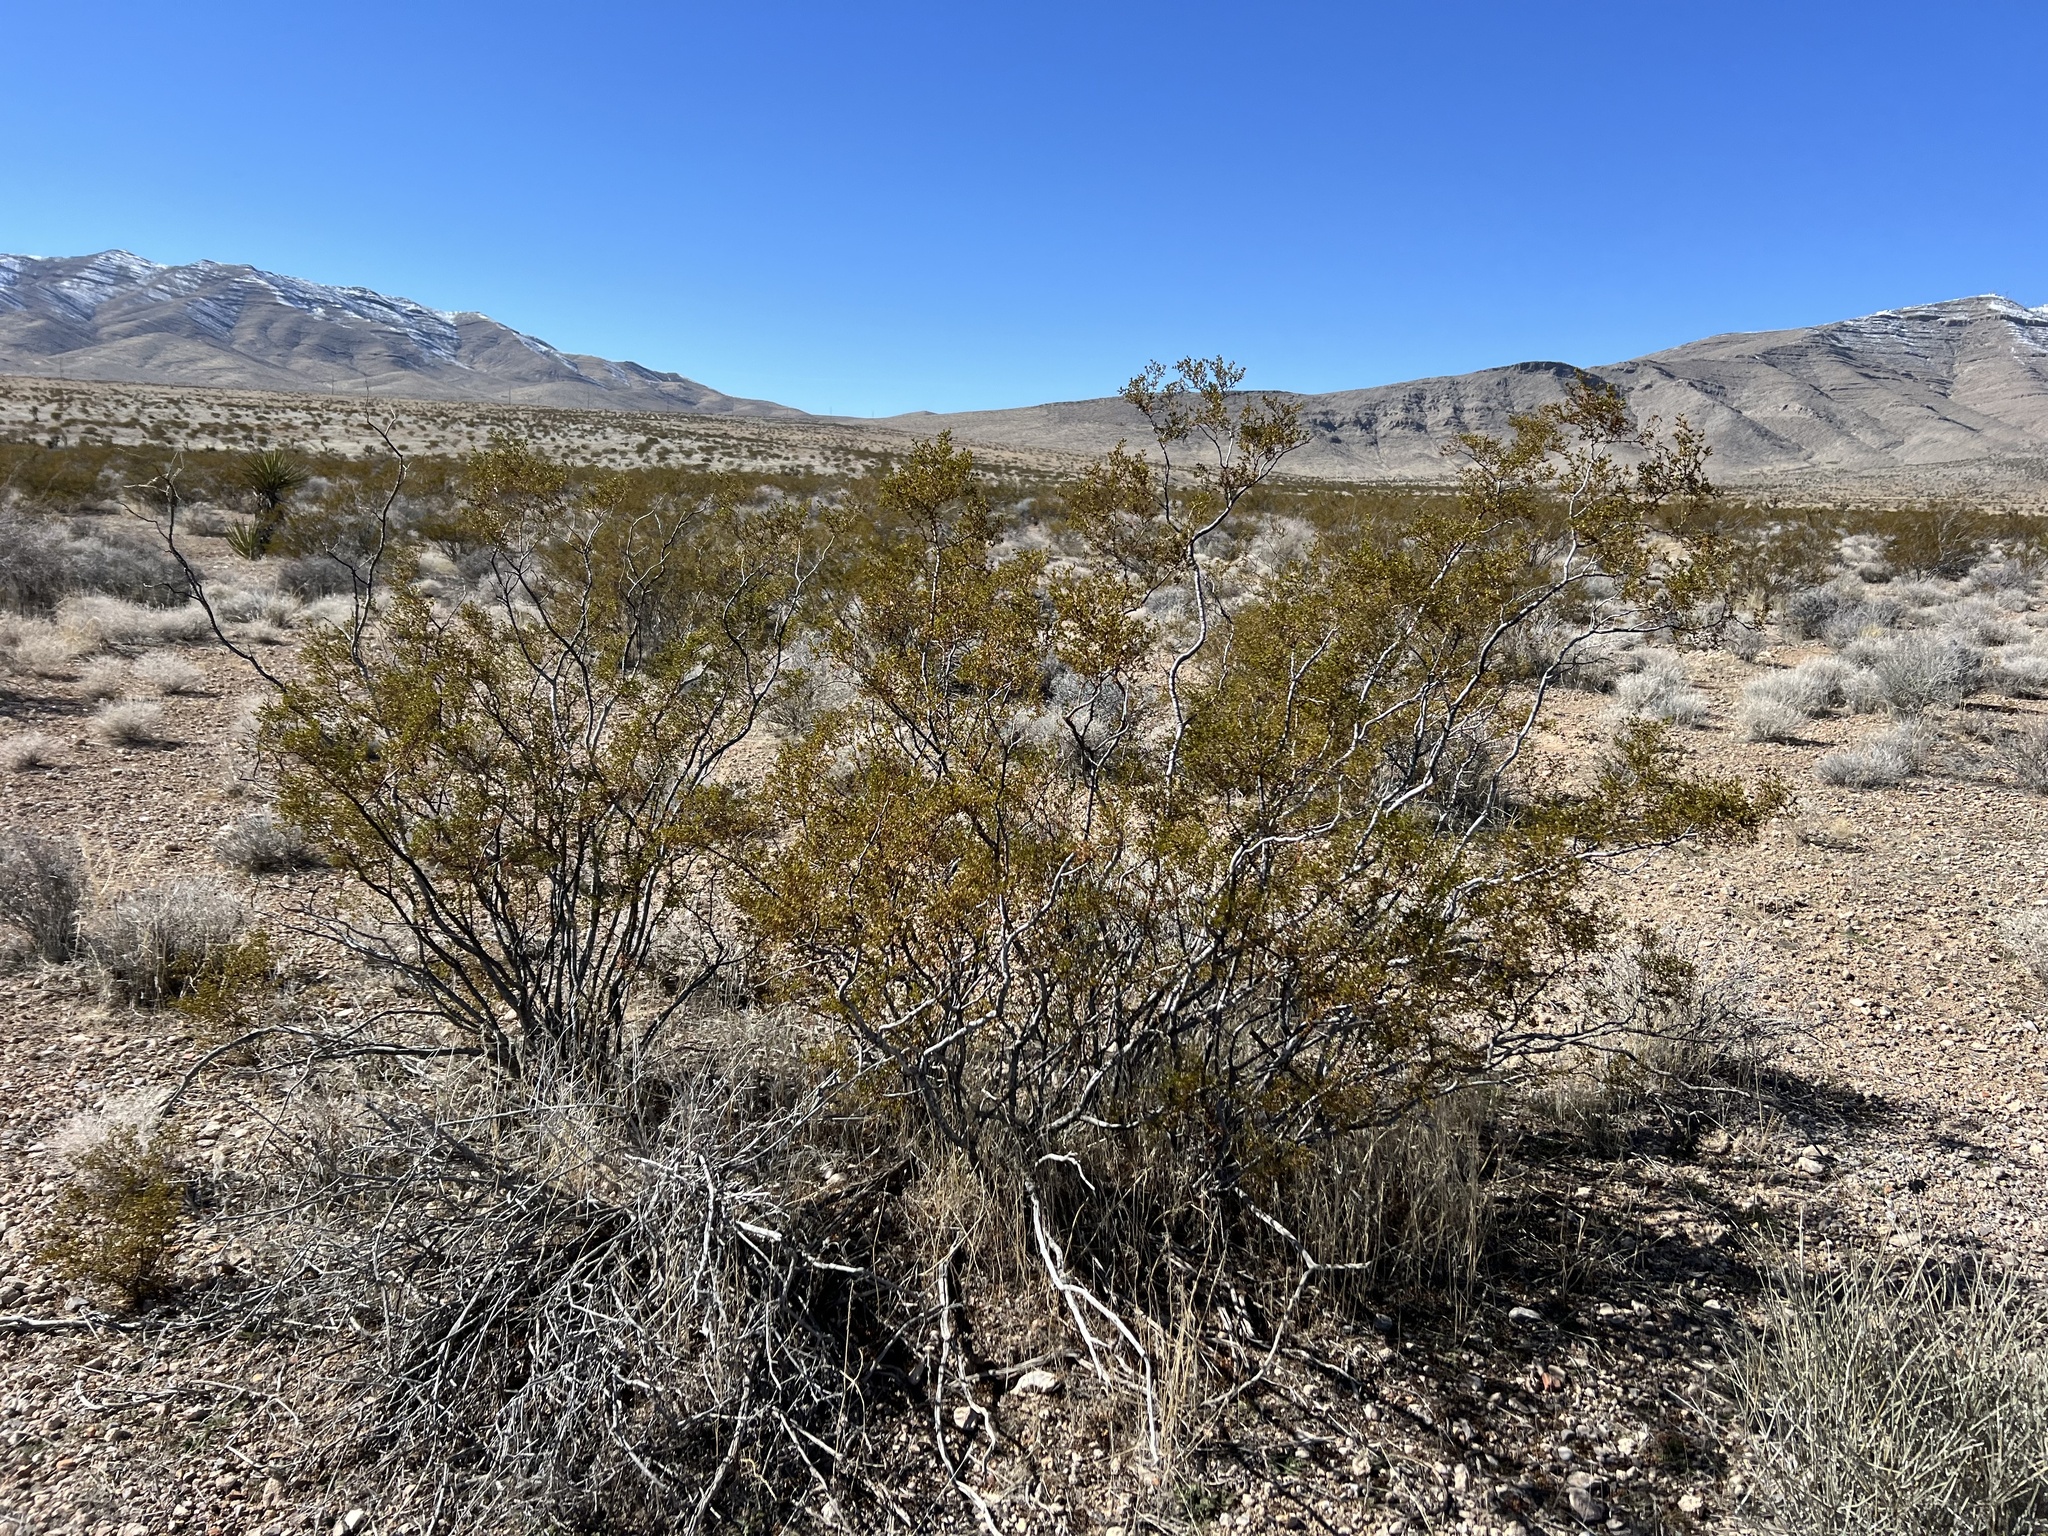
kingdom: Plantae
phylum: Tracheophyta
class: Magnoliopsida
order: Zygophyllales
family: Zygophyllaceae
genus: Larrea
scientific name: Larrea tridentata
